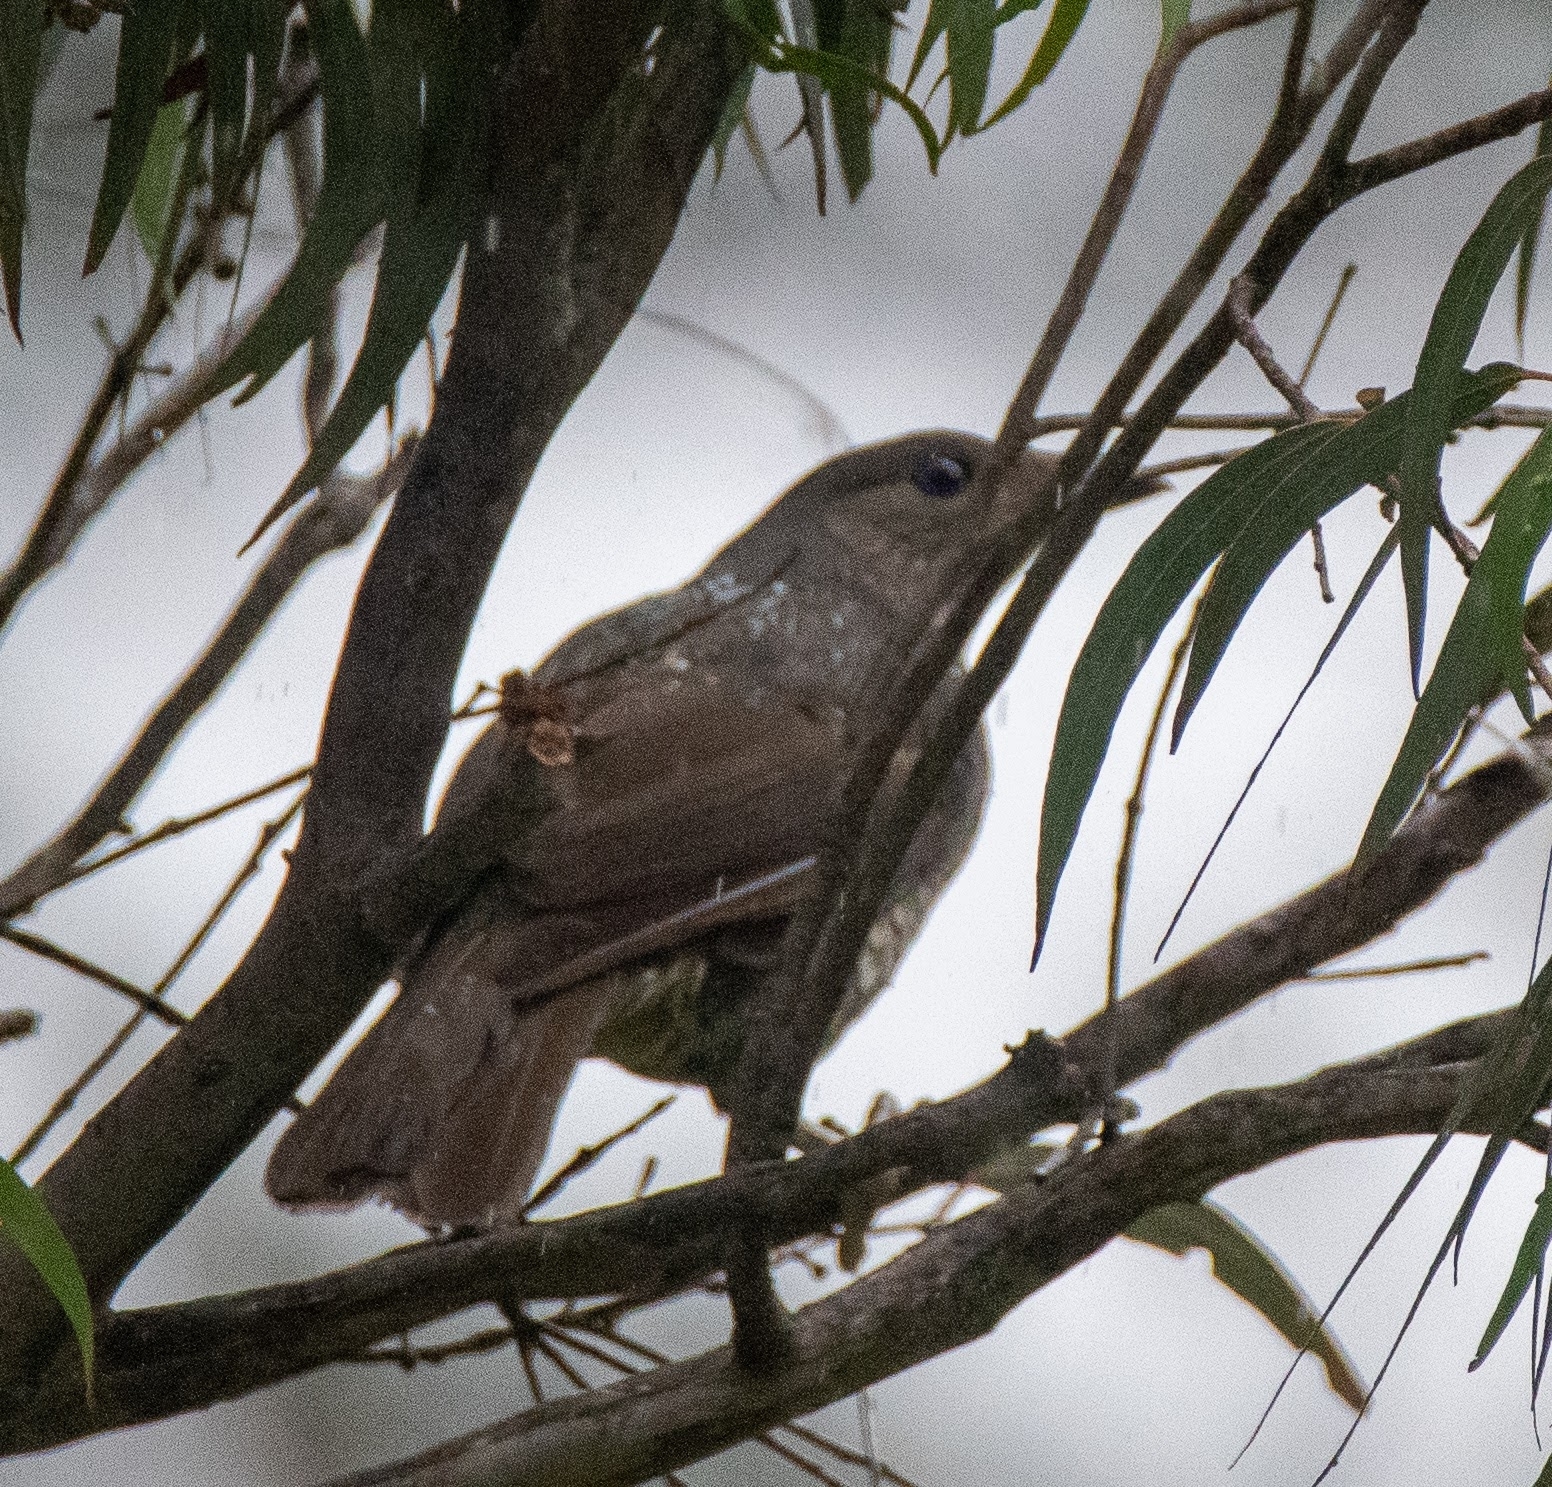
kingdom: Animalia
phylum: Chordata
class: Aves
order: Passeriformes
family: Ptilonorhynchidae
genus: Ptilonorhynchus
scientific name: Ptilonorhynchus violaceus
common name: Satin bowerbird
